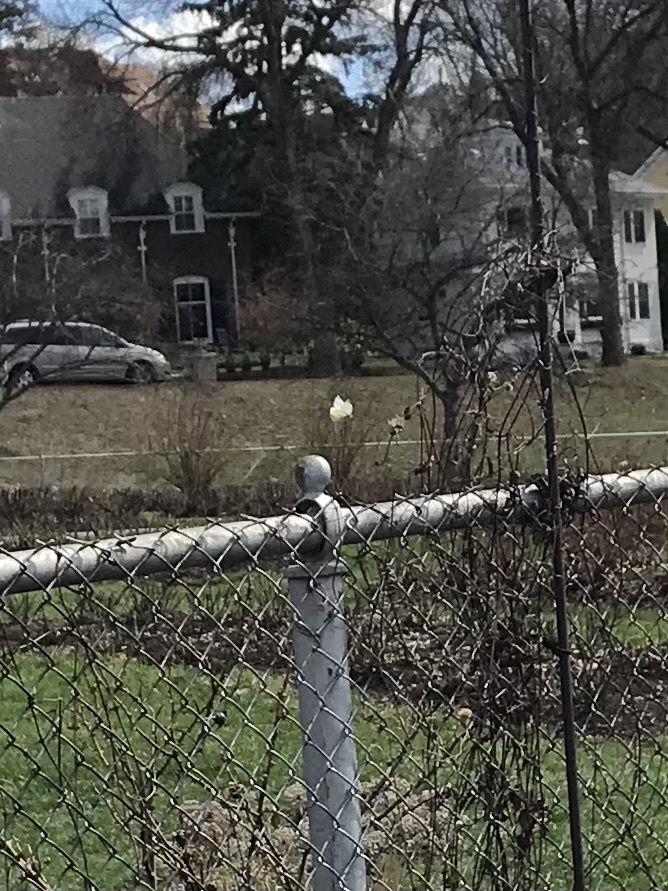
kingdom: Animalia
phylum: Arthropoda
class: Insecta
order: Lepidoptera
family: Pieridae
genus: Pieris
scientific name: Pieris rapae
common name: Small white
